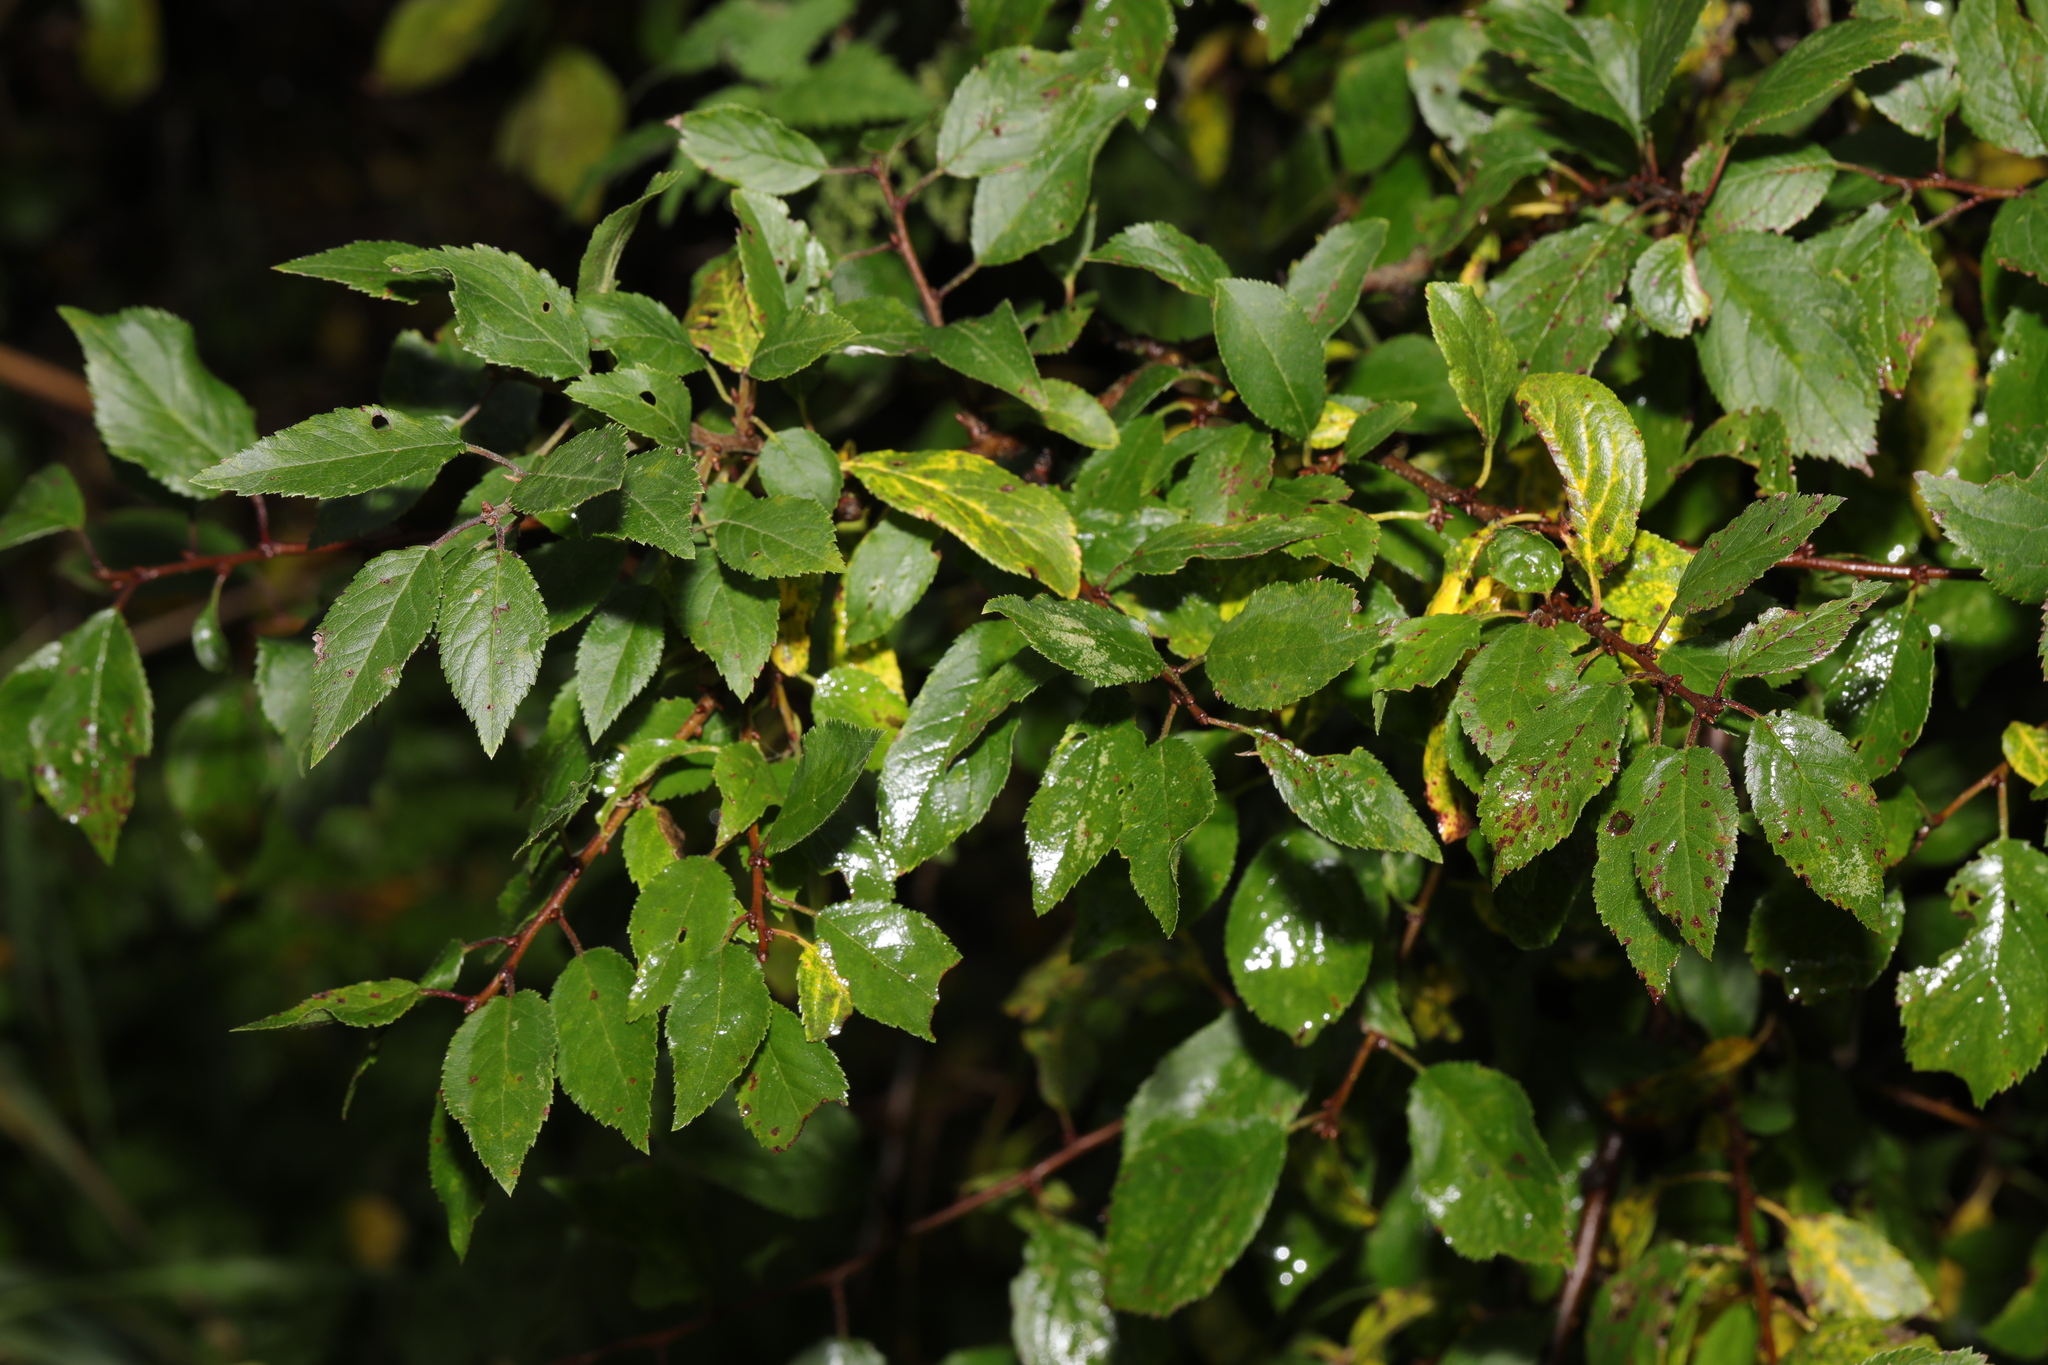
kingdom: Plantae
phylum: Tracheophyta
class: Magnoliopsida
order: Rosales
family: Rosaceae
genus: Prunus
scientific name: Prunus spinosa
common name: Blackthorn
